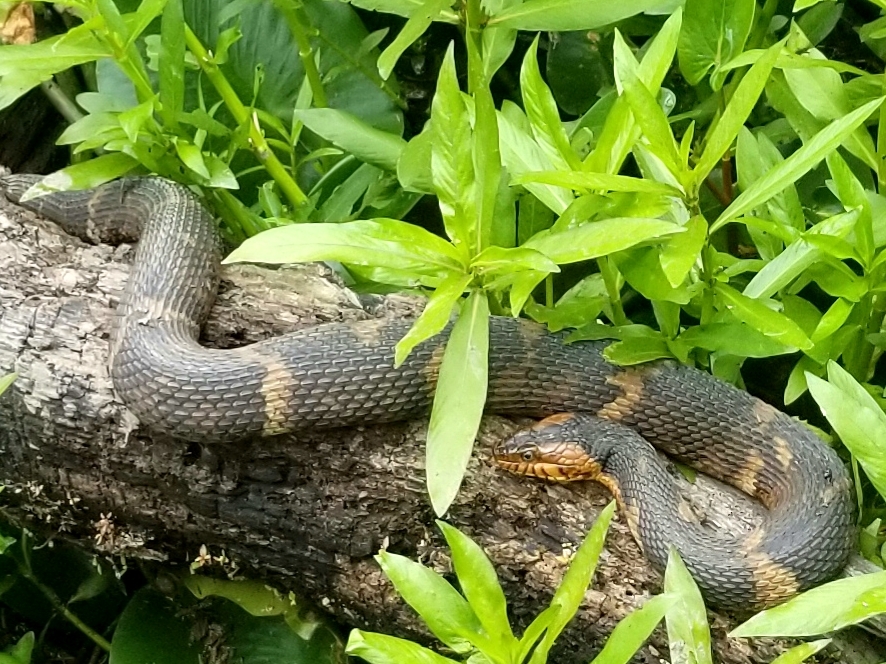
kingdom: Animalia
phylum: Chordata
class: Squamata
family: Colubridae
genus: Nerodia
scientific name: Nerodia fasciata
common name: Southern water snake
